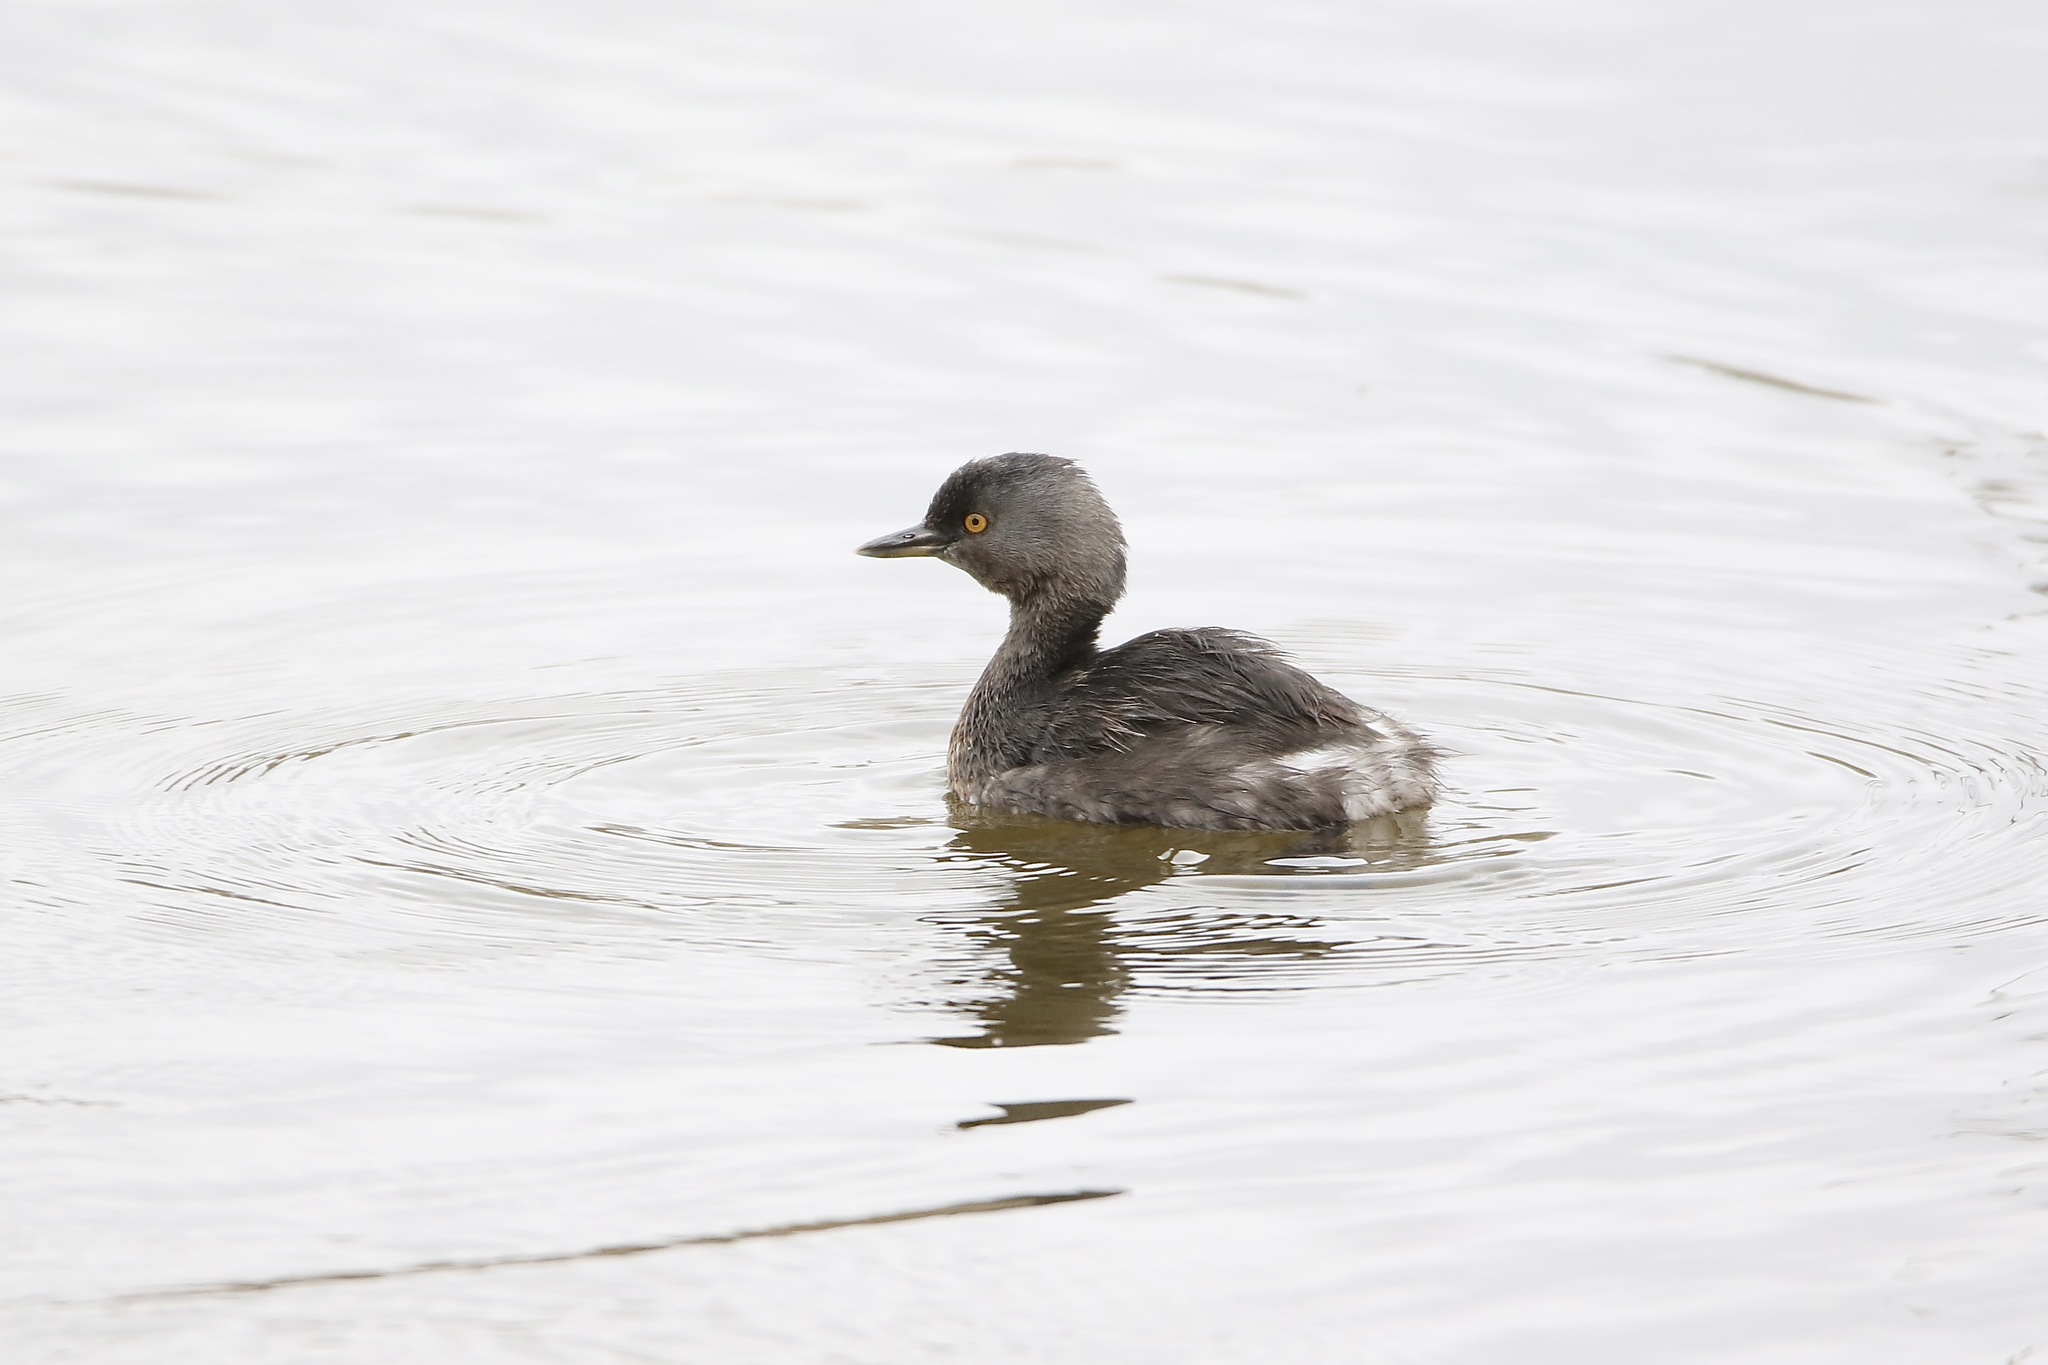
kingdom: Animalia
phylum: Chordata
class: Aves
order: Podicipediformes
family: Podicipedidae
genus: Tachybaptus
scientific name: Tachybaptus dominicus
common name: Least grebe
